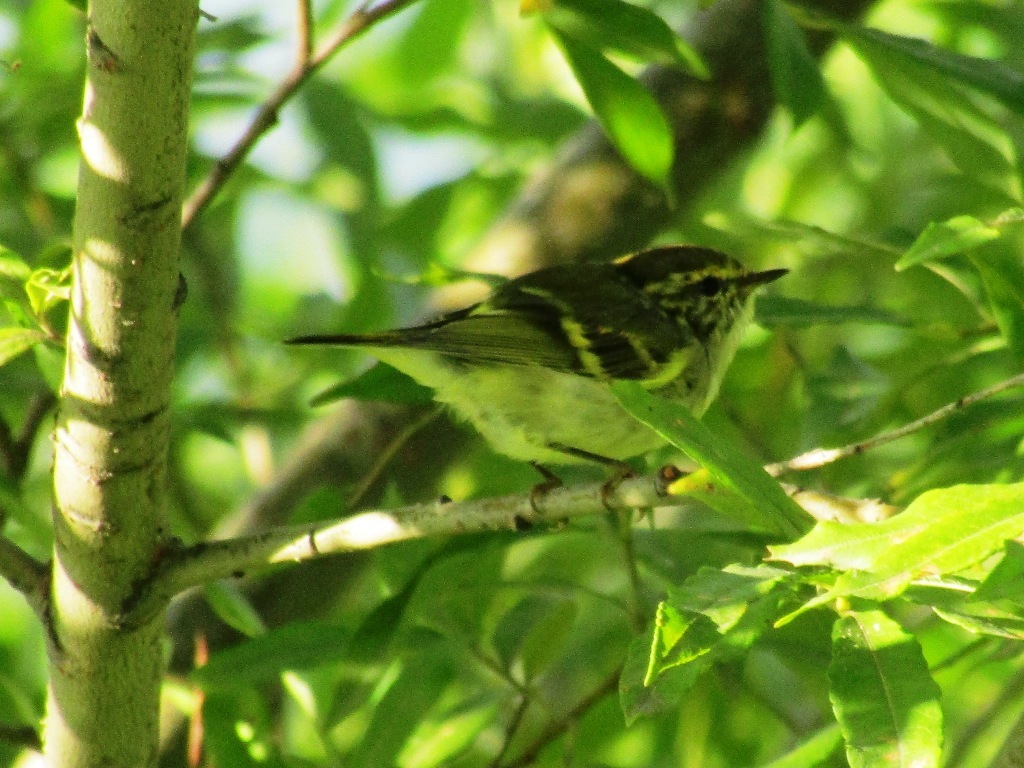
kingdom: Animalia
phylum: Chordata
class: Aves
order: Passeriformes
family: Phylloscopidae
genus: Phylloscopus
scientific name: Phylloscopus proregulus
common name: Pallas's leaf warbler
